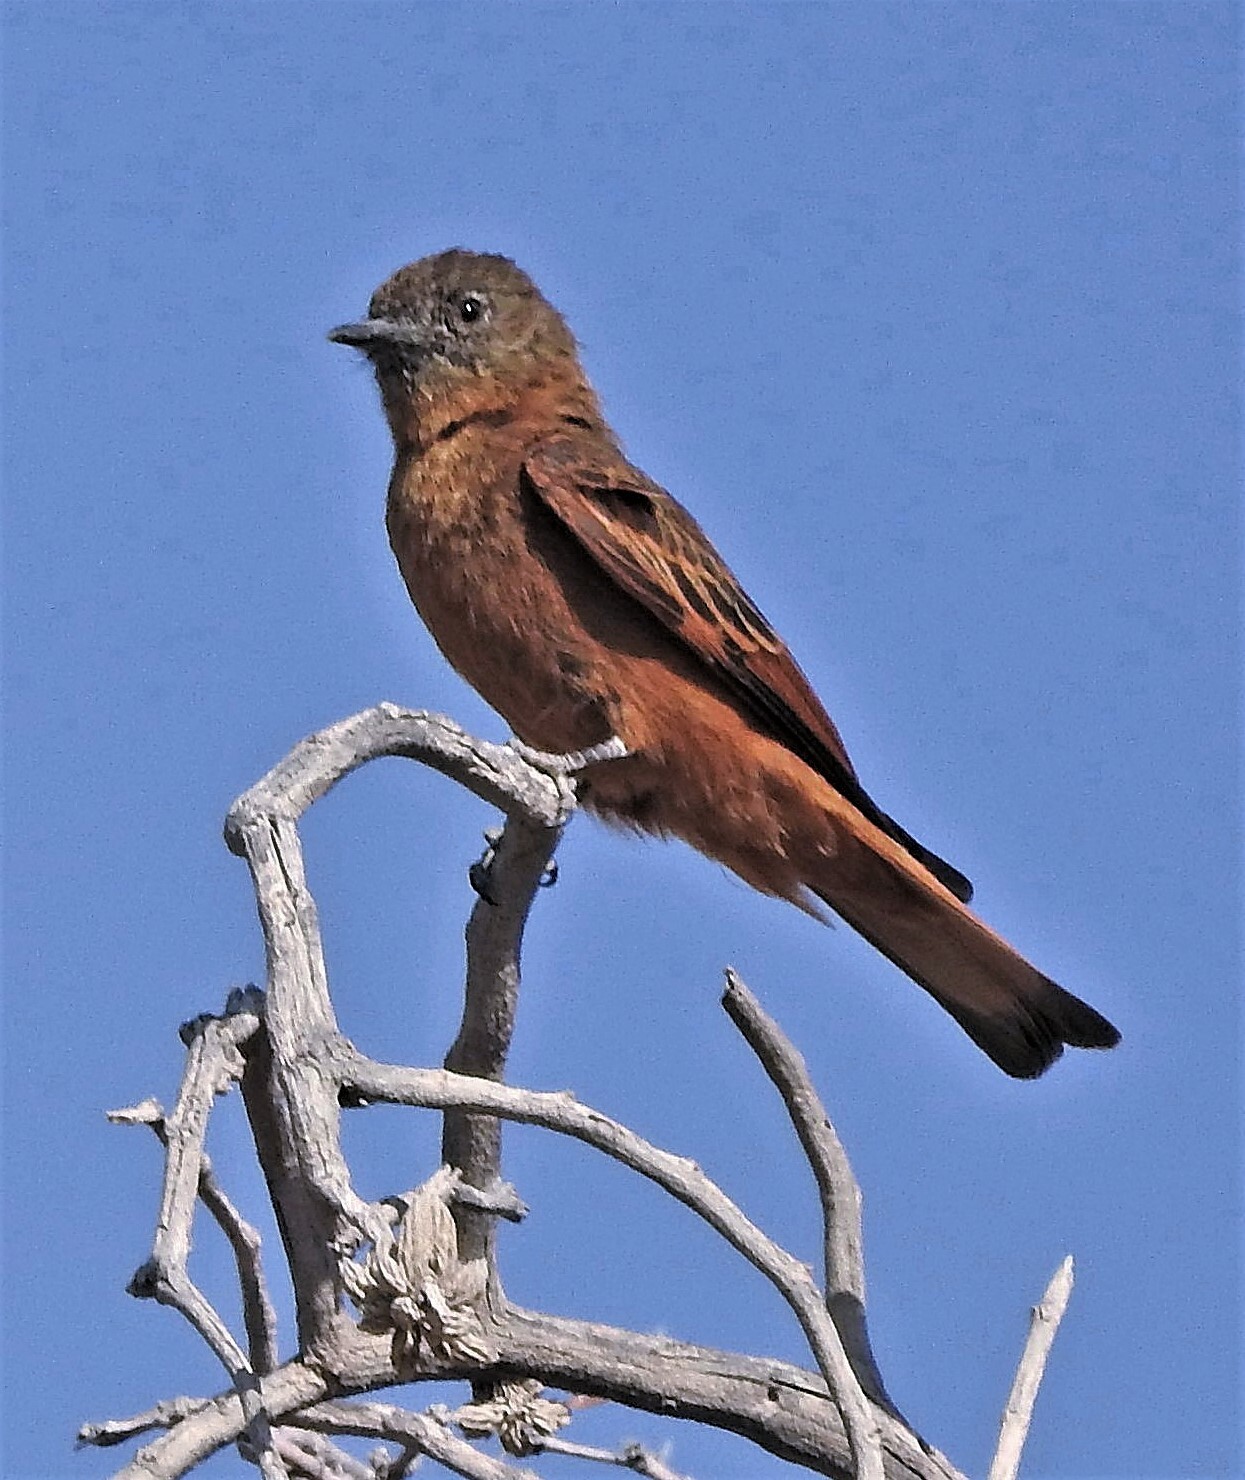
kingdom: Animalia
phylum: Chordata
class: Aves
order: Passeriformes
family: Tyrannidae
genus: Hirundinea
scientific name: Hirundinea ferruginea
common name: Cliff flycatcher
